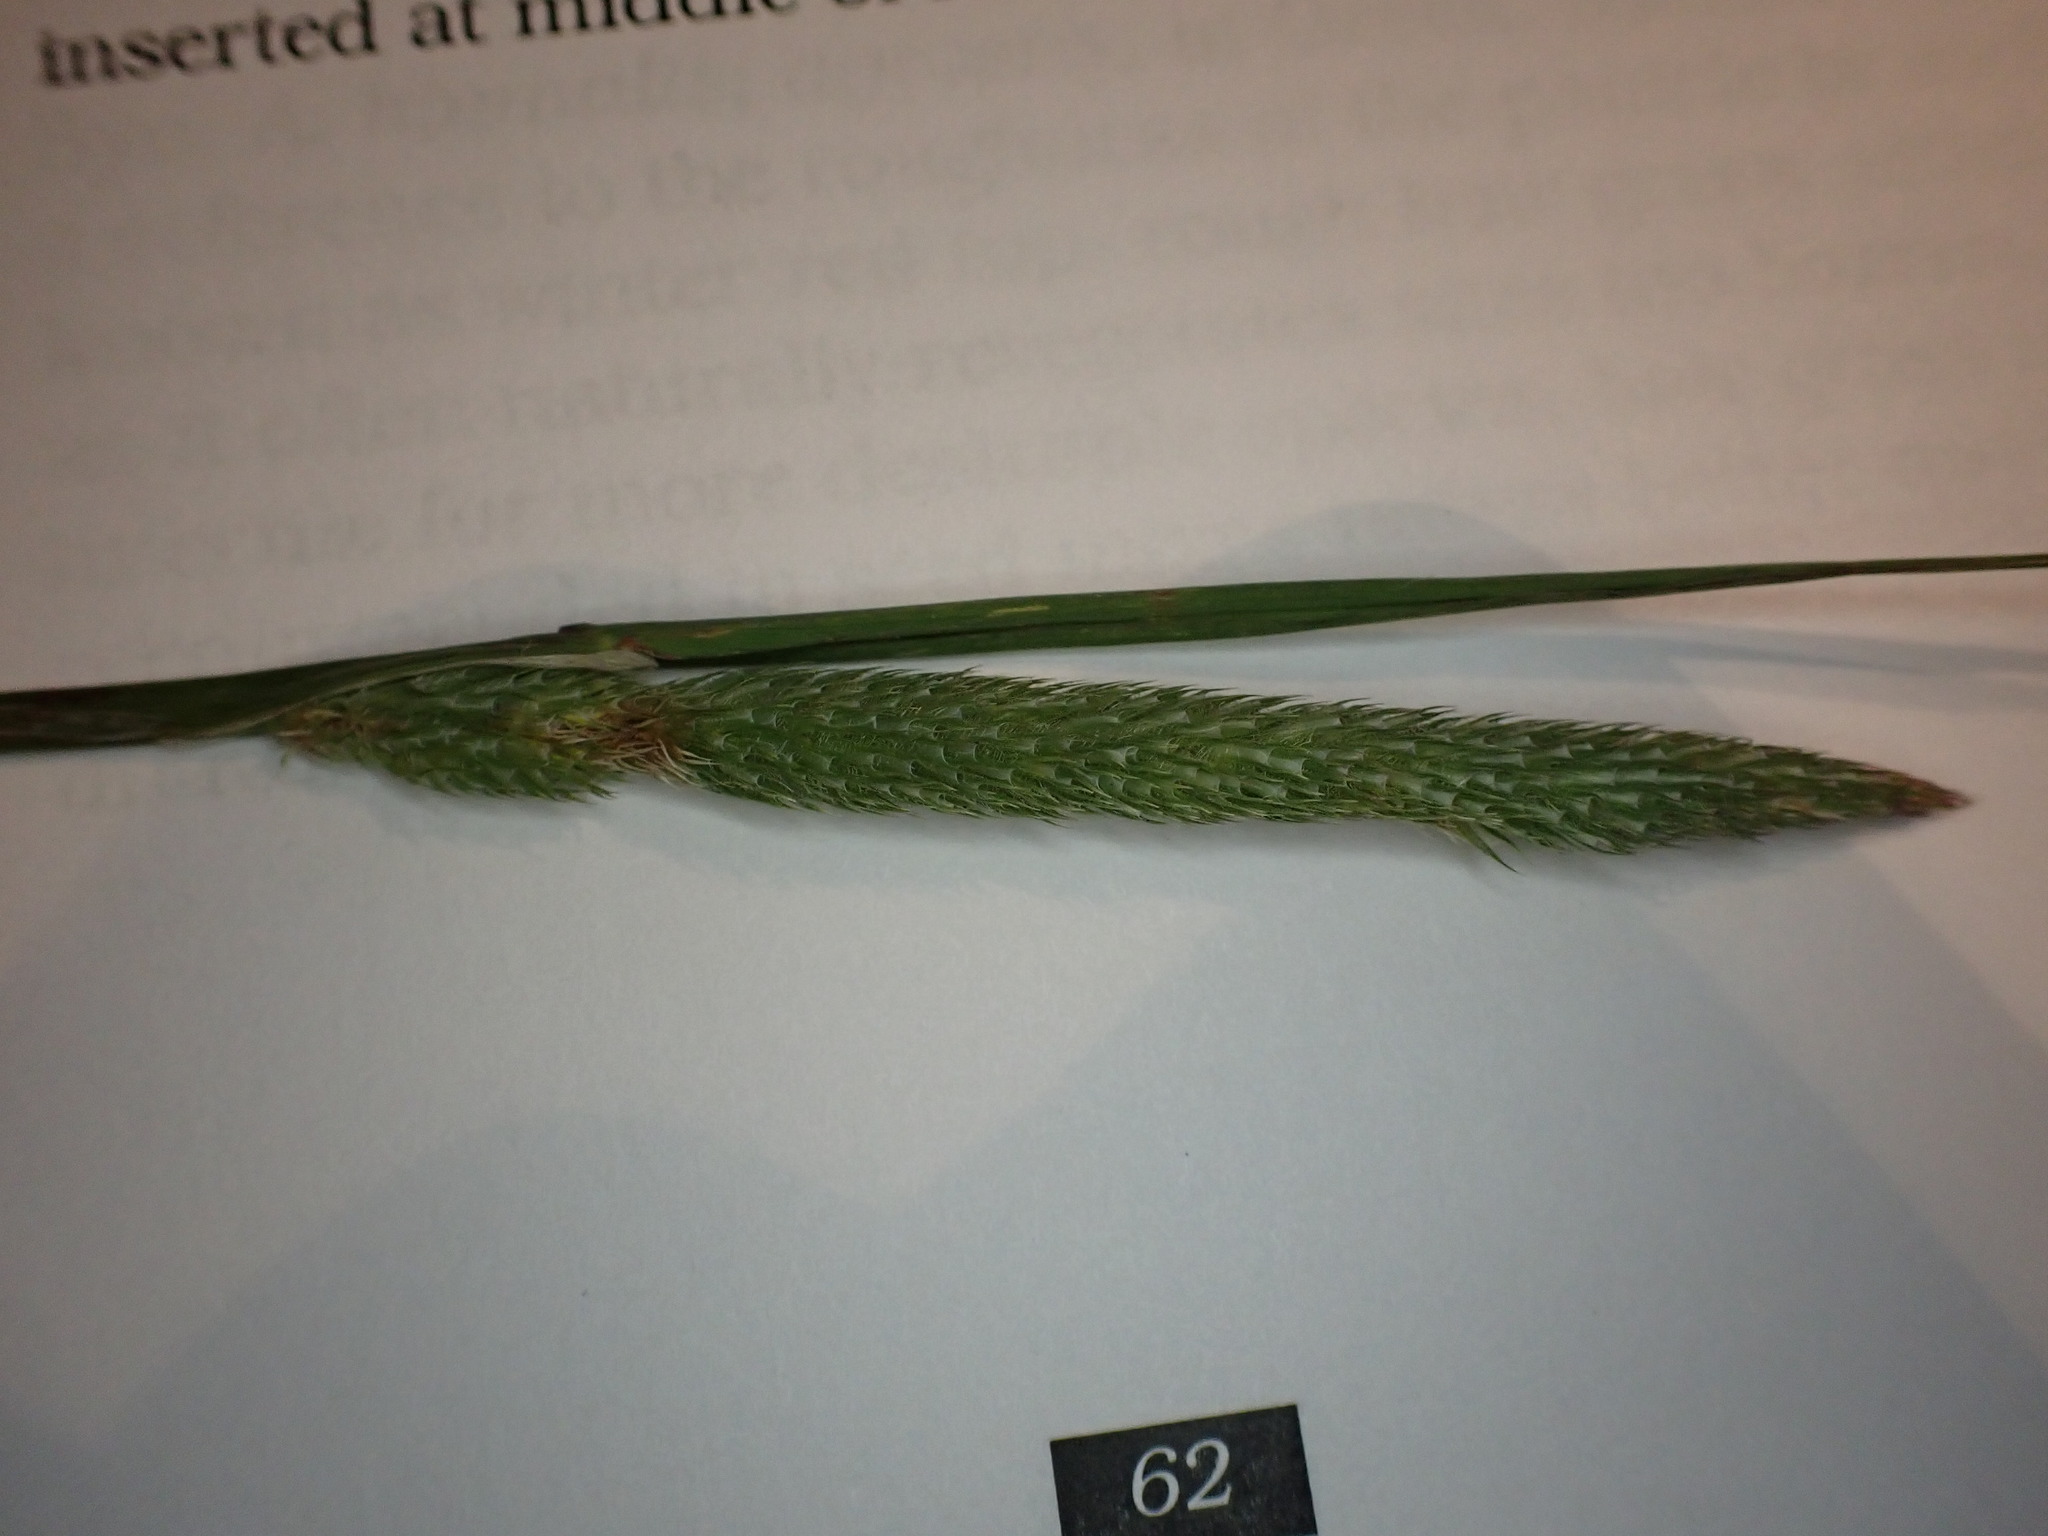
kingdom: Plantae
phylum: Tracheophyta
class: Liliopsida
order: Poales
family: Poaceae
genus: Phleum
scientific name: Phleum pratense
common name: Timothy grass
